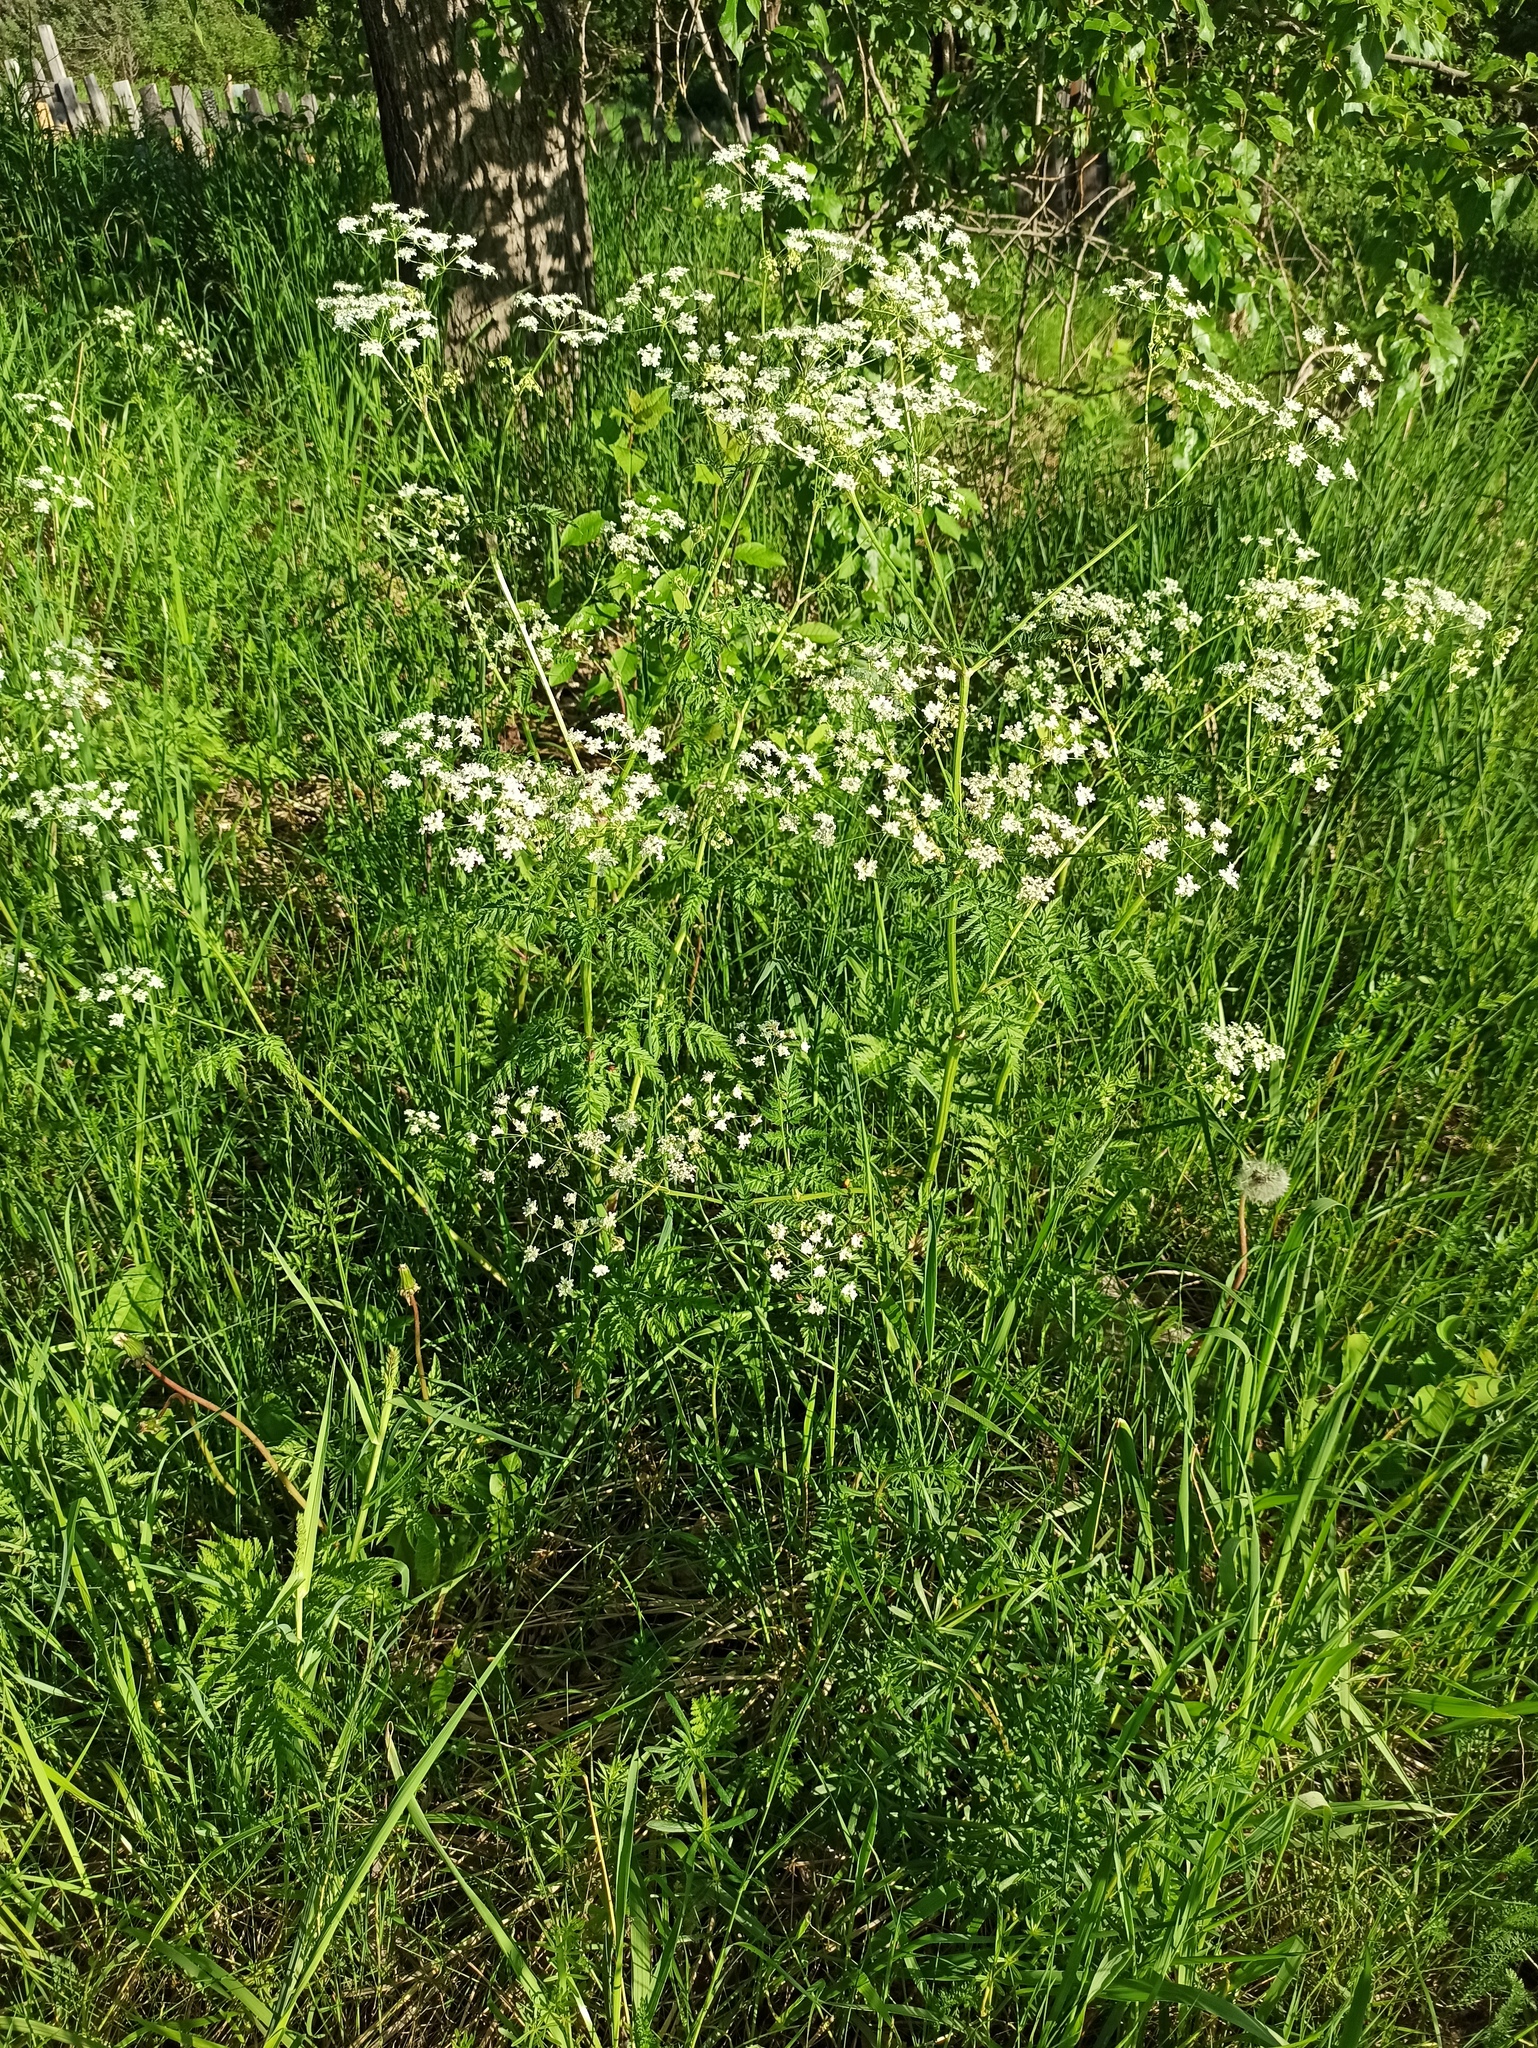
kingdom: Plantae
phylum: Tracheophyta
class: Magnoliopsida
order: Apiales
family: Apiaceae
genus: Anthriscus
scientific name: Anthriscus sylvestris
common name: Cow parsley
